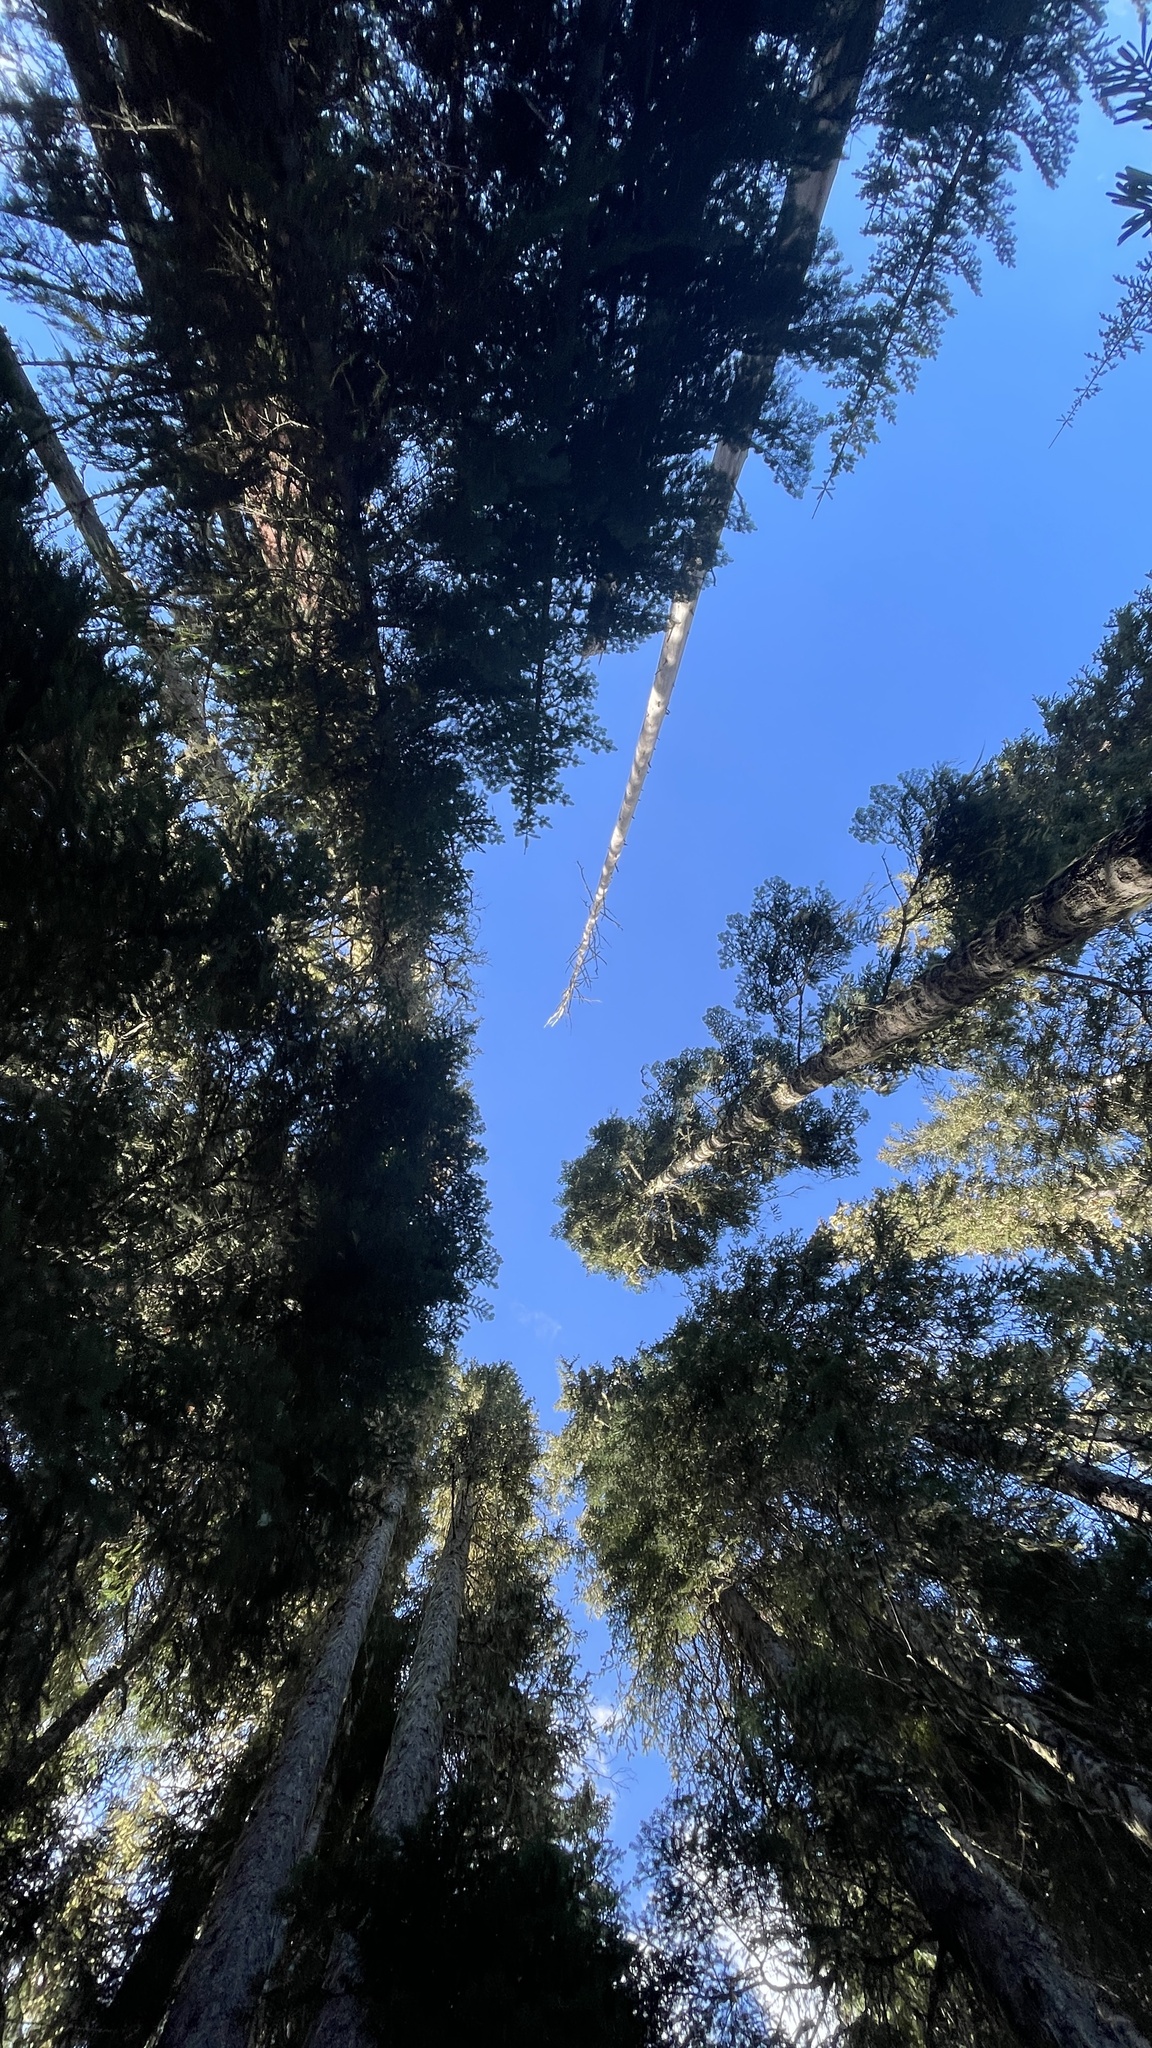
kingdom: Fungi
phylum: Basidiomycota
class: Agaricomycetes
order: Russulales
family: Albatrellaceae
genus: Leucogaster
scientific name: Leucogaster citrinus
